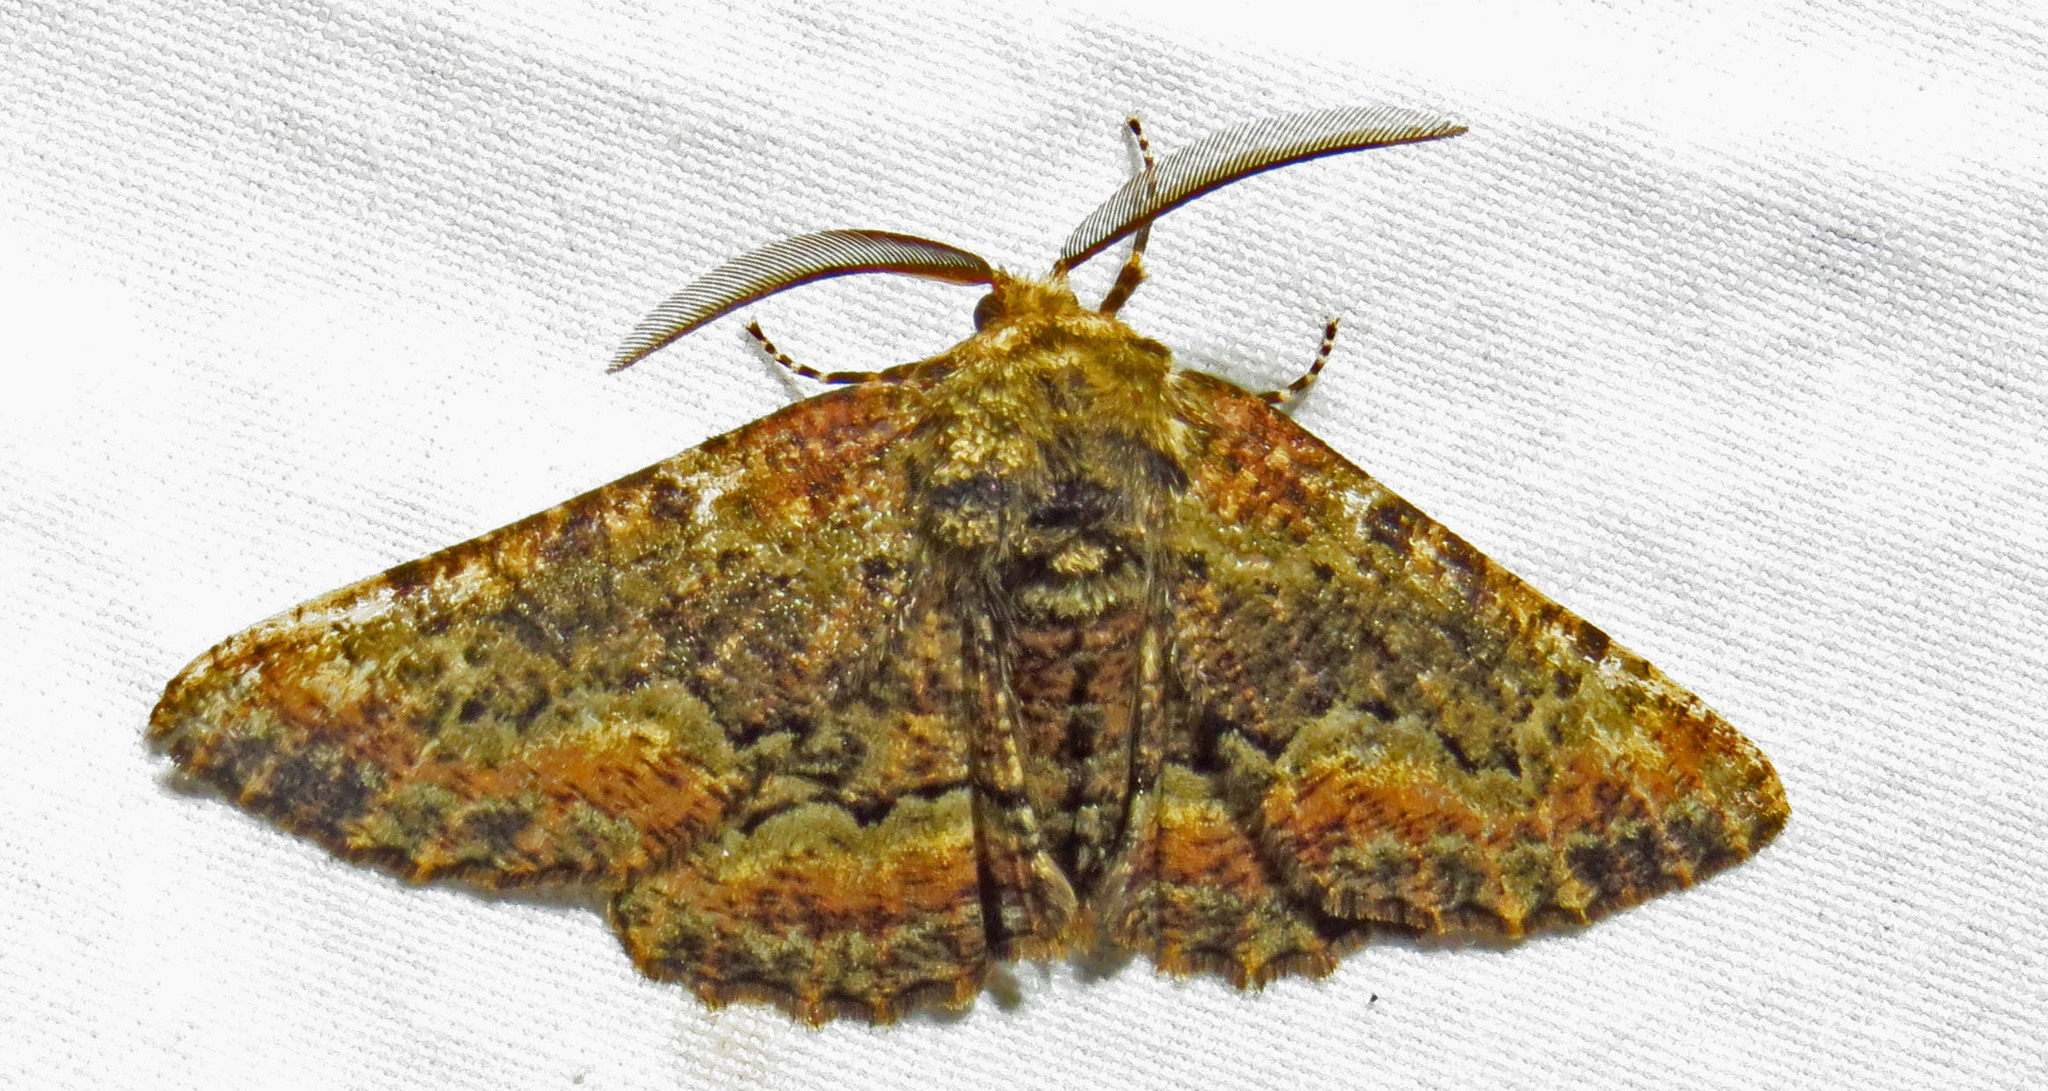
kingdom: Animalia
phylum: Arthropoda
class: Insecta
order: Lepidoptera
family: Geometridae
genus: Phaeoura
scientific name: Phaeoura quernaria
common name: Oak beauty
